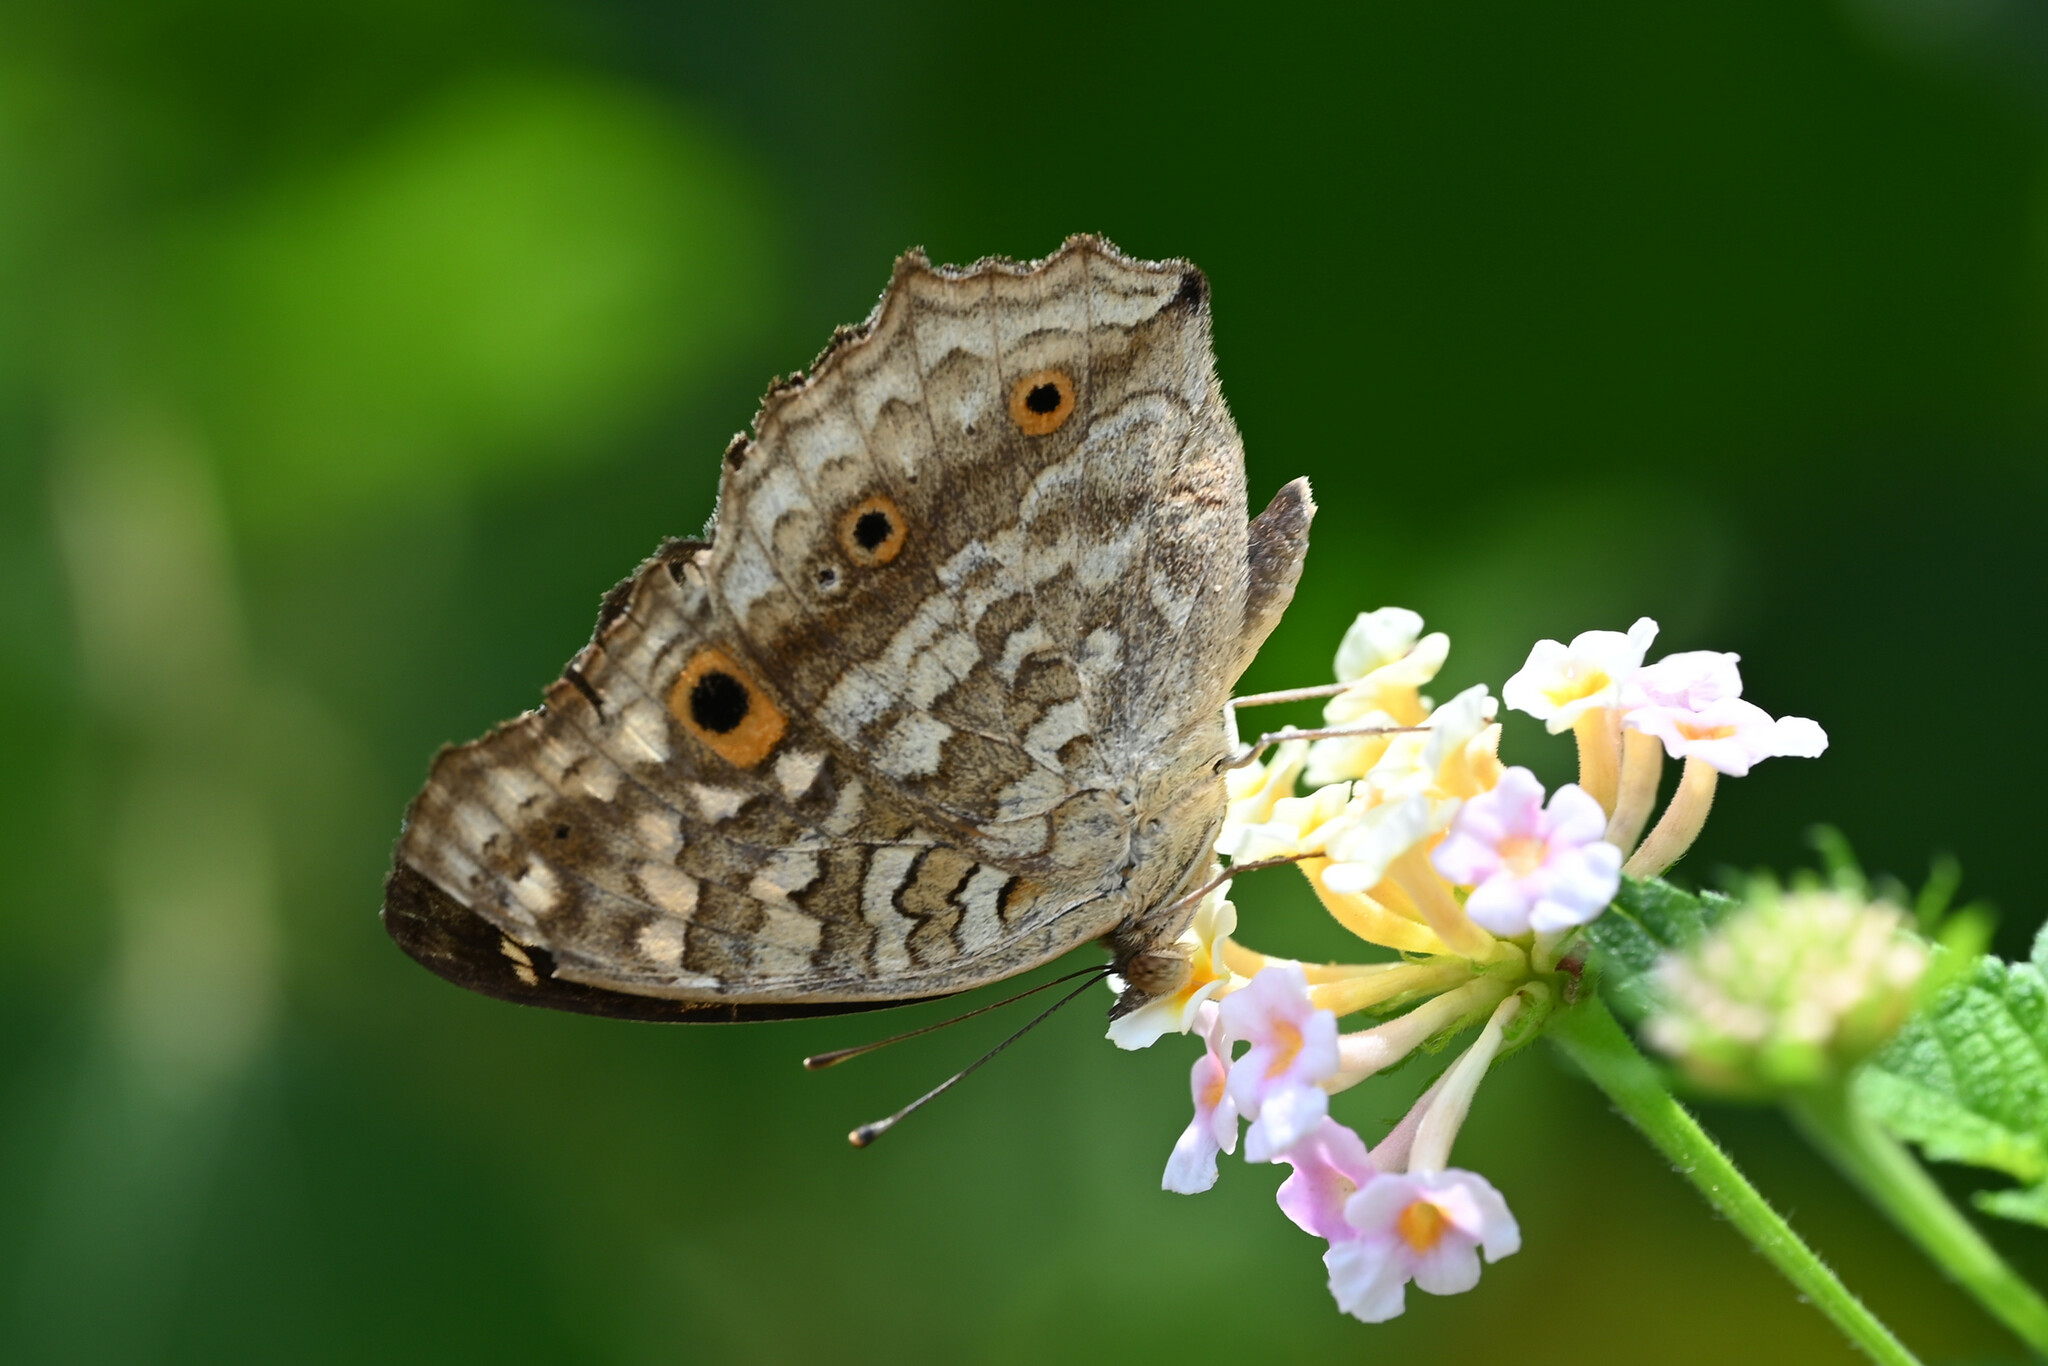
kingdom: Animalia
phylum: Arthropoda
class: Insecta
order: Lepidoptera
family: Nymphalidae
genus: Junonia
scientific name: Junonia lemonias
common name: Lemon pansy
